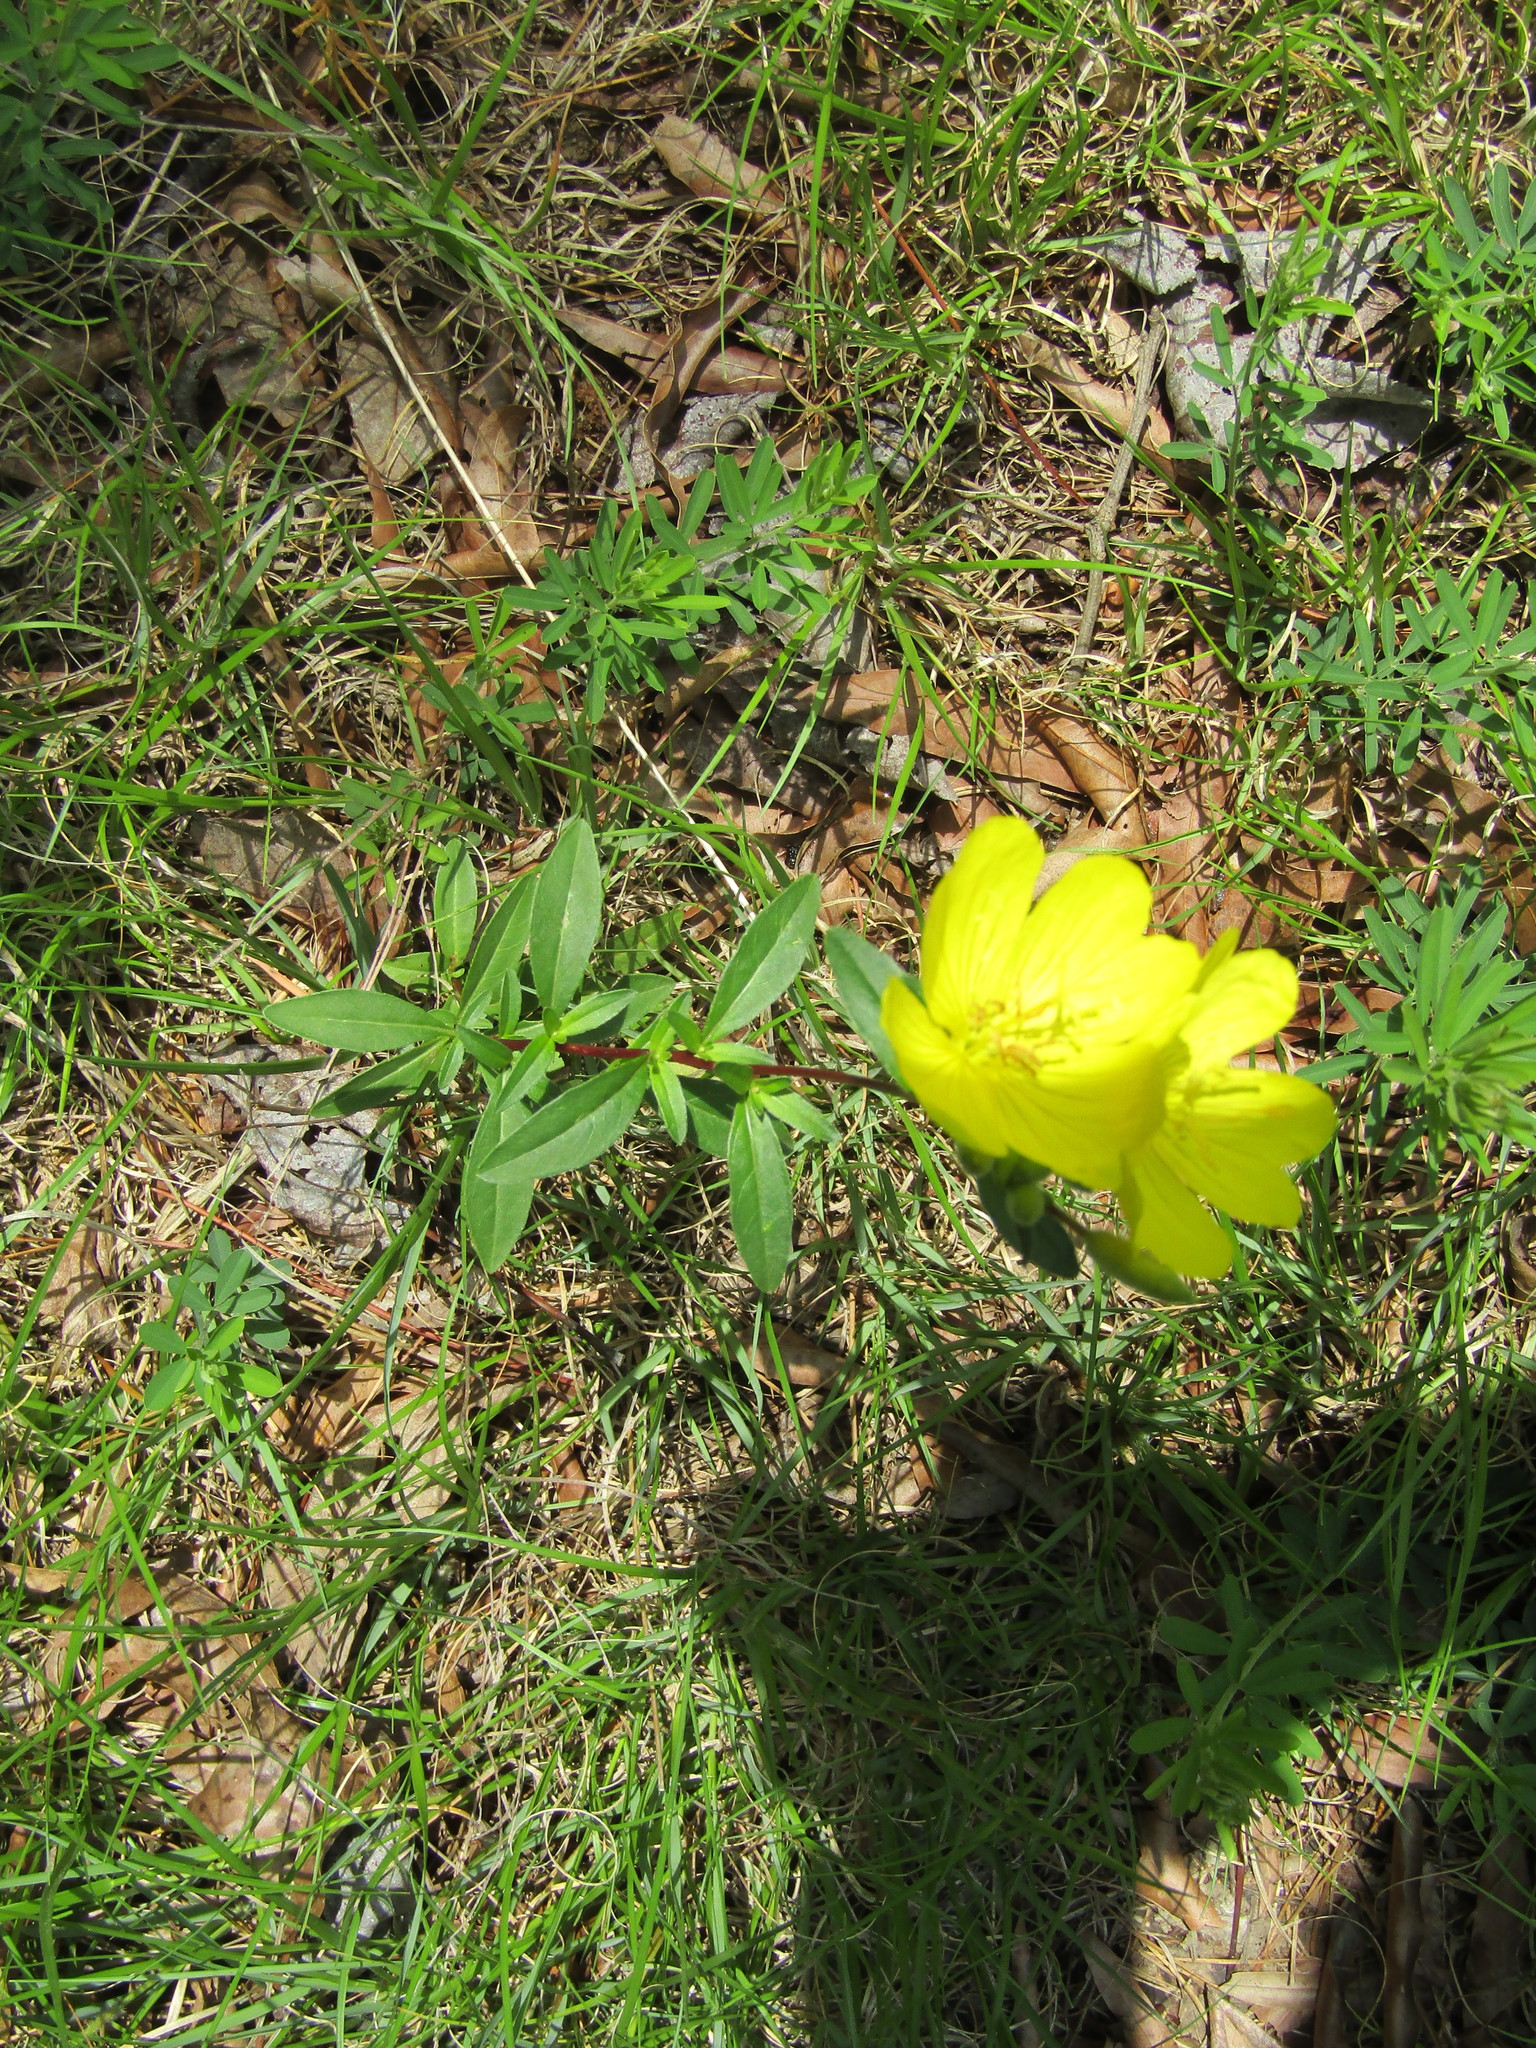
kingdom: Plantae
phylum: Tracheophyta
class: Magnoliopsida
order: Myrtales
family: Onagraceae
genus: Oenothera
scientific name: Oenothera fruticosa
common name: Southern sundrops
